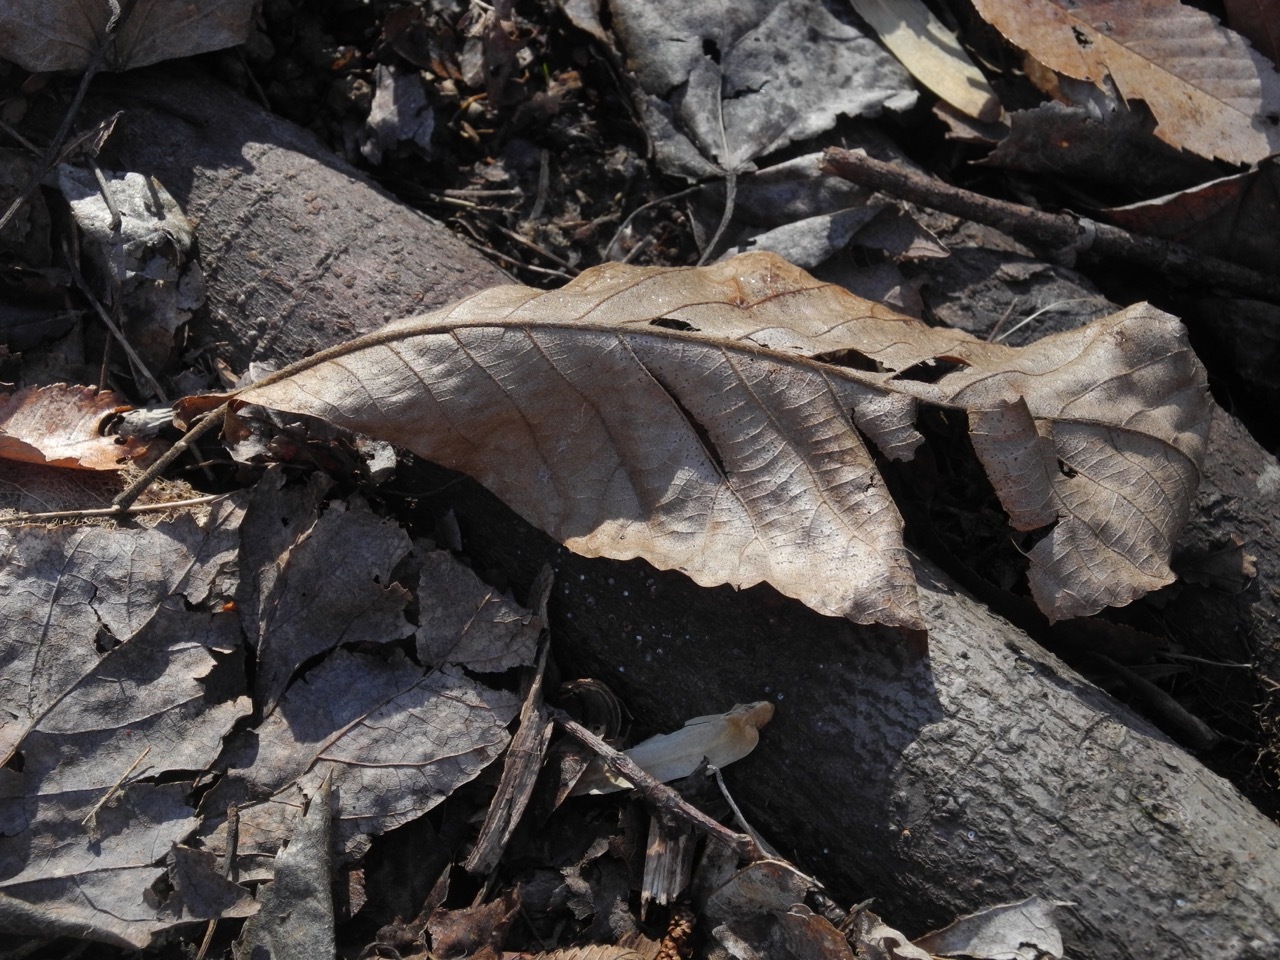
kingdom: Plantae
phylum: Tracheophyta
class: Magnoliopsida
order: Fagales
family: Juglandaceae
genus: Carya
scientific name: Carya alba
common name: Mockernut hickory
